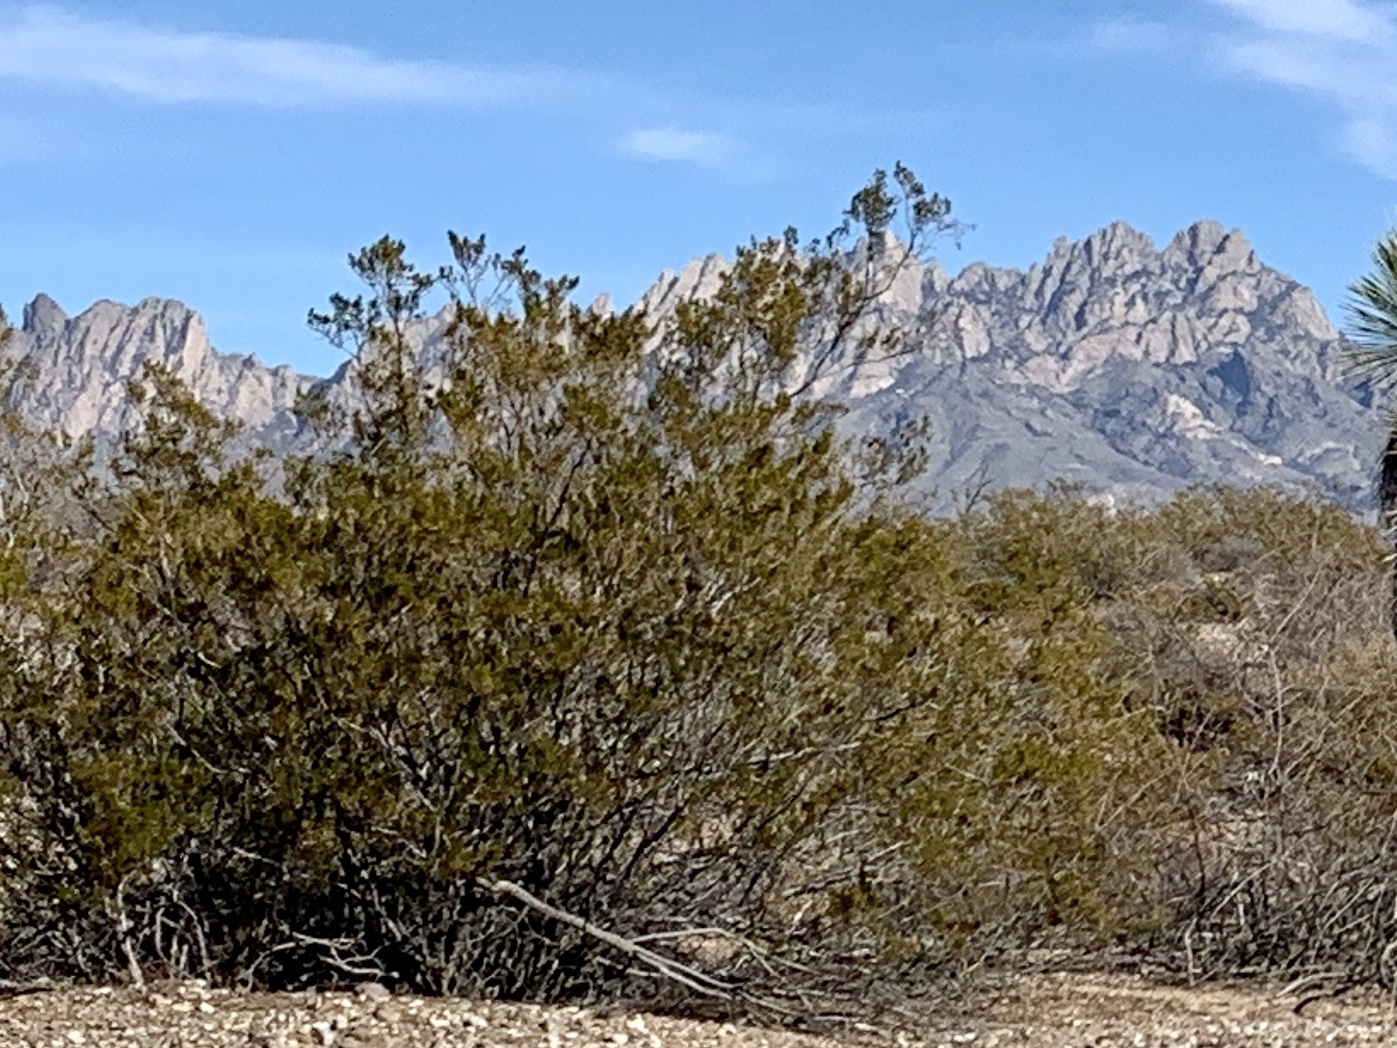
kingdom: Plantae
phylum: Tracheophyta
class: Magnoliopsida
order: Zygophyllales
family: Zygophyllaceae
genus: Larrea
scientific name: Larrea tridentata
